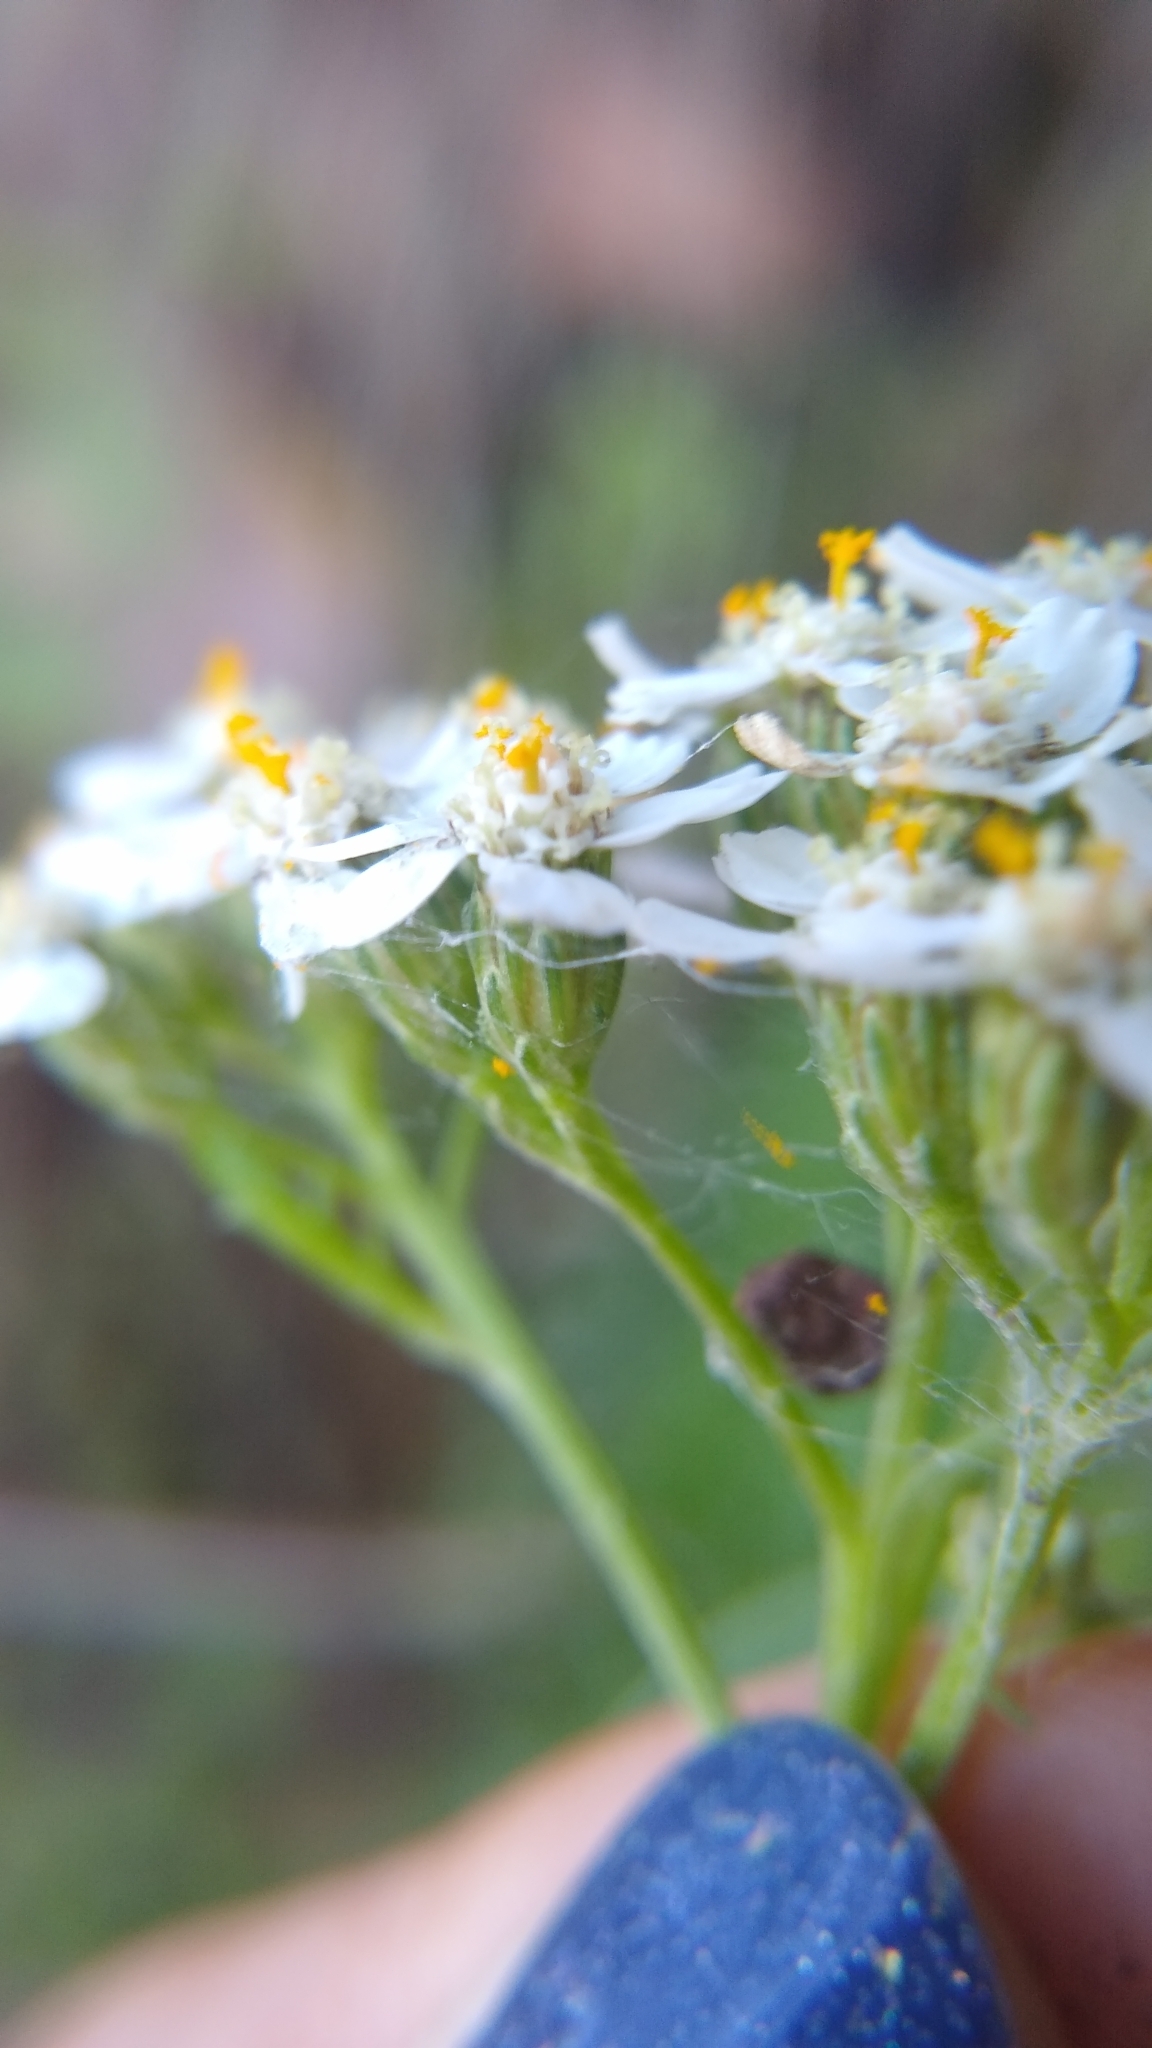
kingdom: Plantae
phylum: Tracheophyta
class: Magnoliopsida
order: Asterales
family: Asteraceae
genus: Achillea
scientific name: Achillea millefolium
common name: Yarrow
